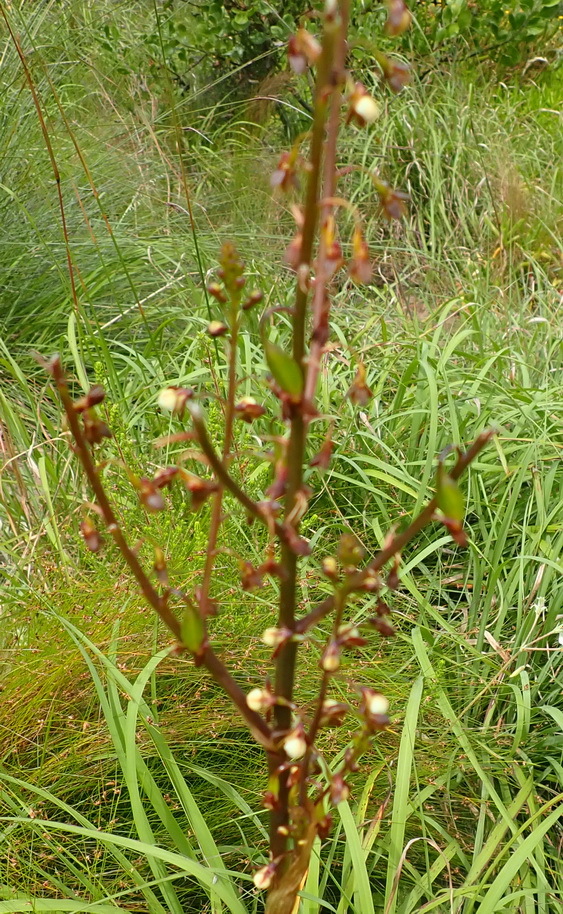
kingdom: Plantae
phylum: Tracheophyta
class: Liliopsida
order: Asparagales
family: Orchidaceae
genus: Eulophia
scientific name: Eulophia cochlearis
